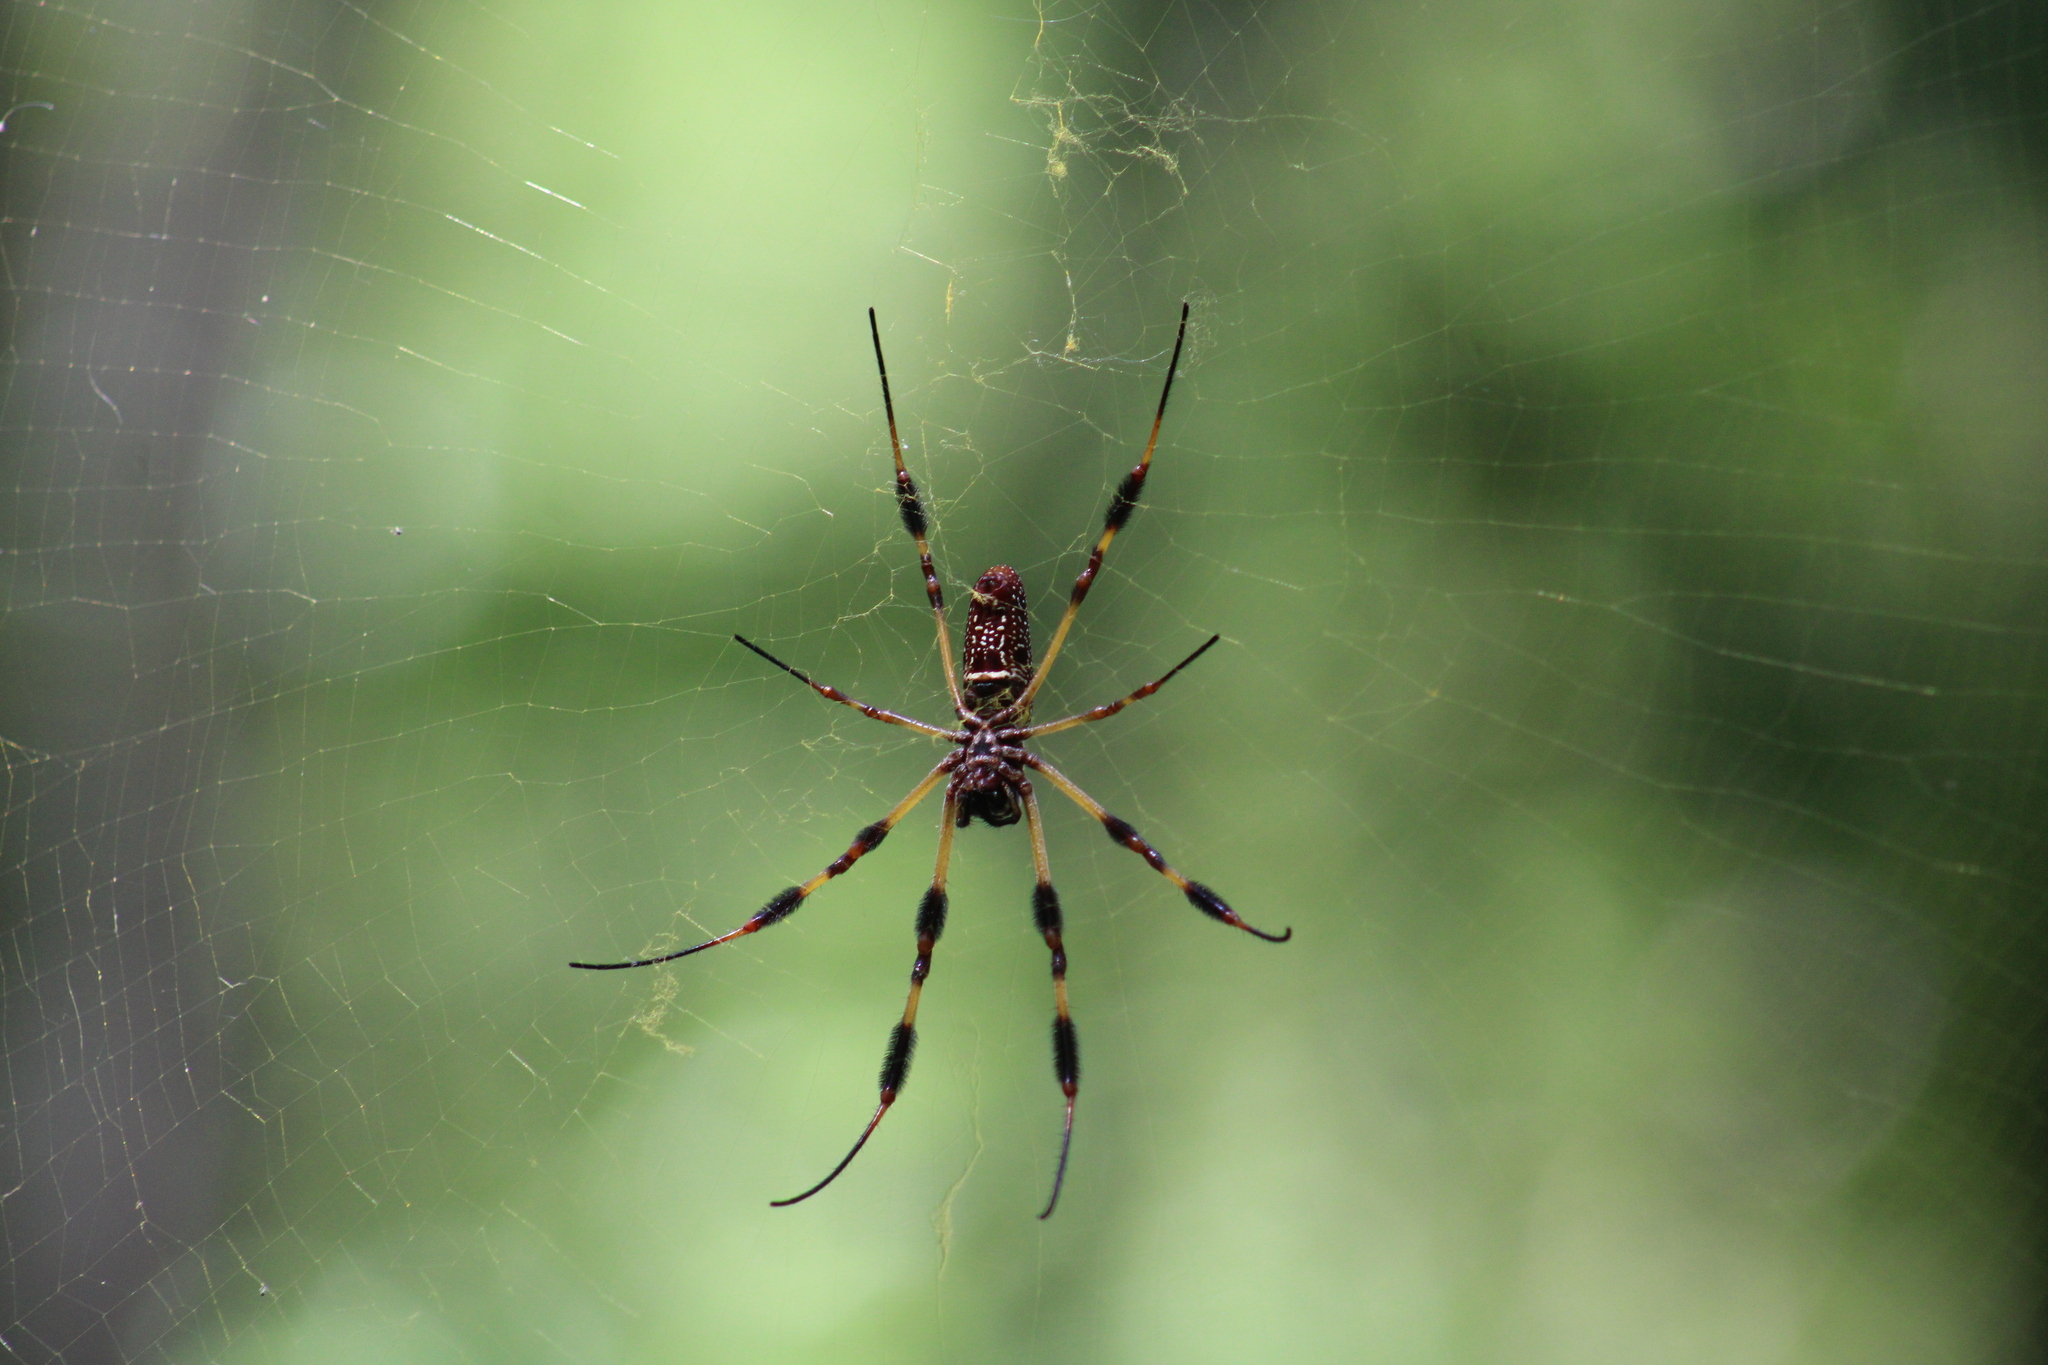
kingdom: Animalia
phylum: Arthropoda
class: Arachnida
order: Araneae
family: Araneidae
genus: Trichonephila
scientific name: Trichonephila clavipes
